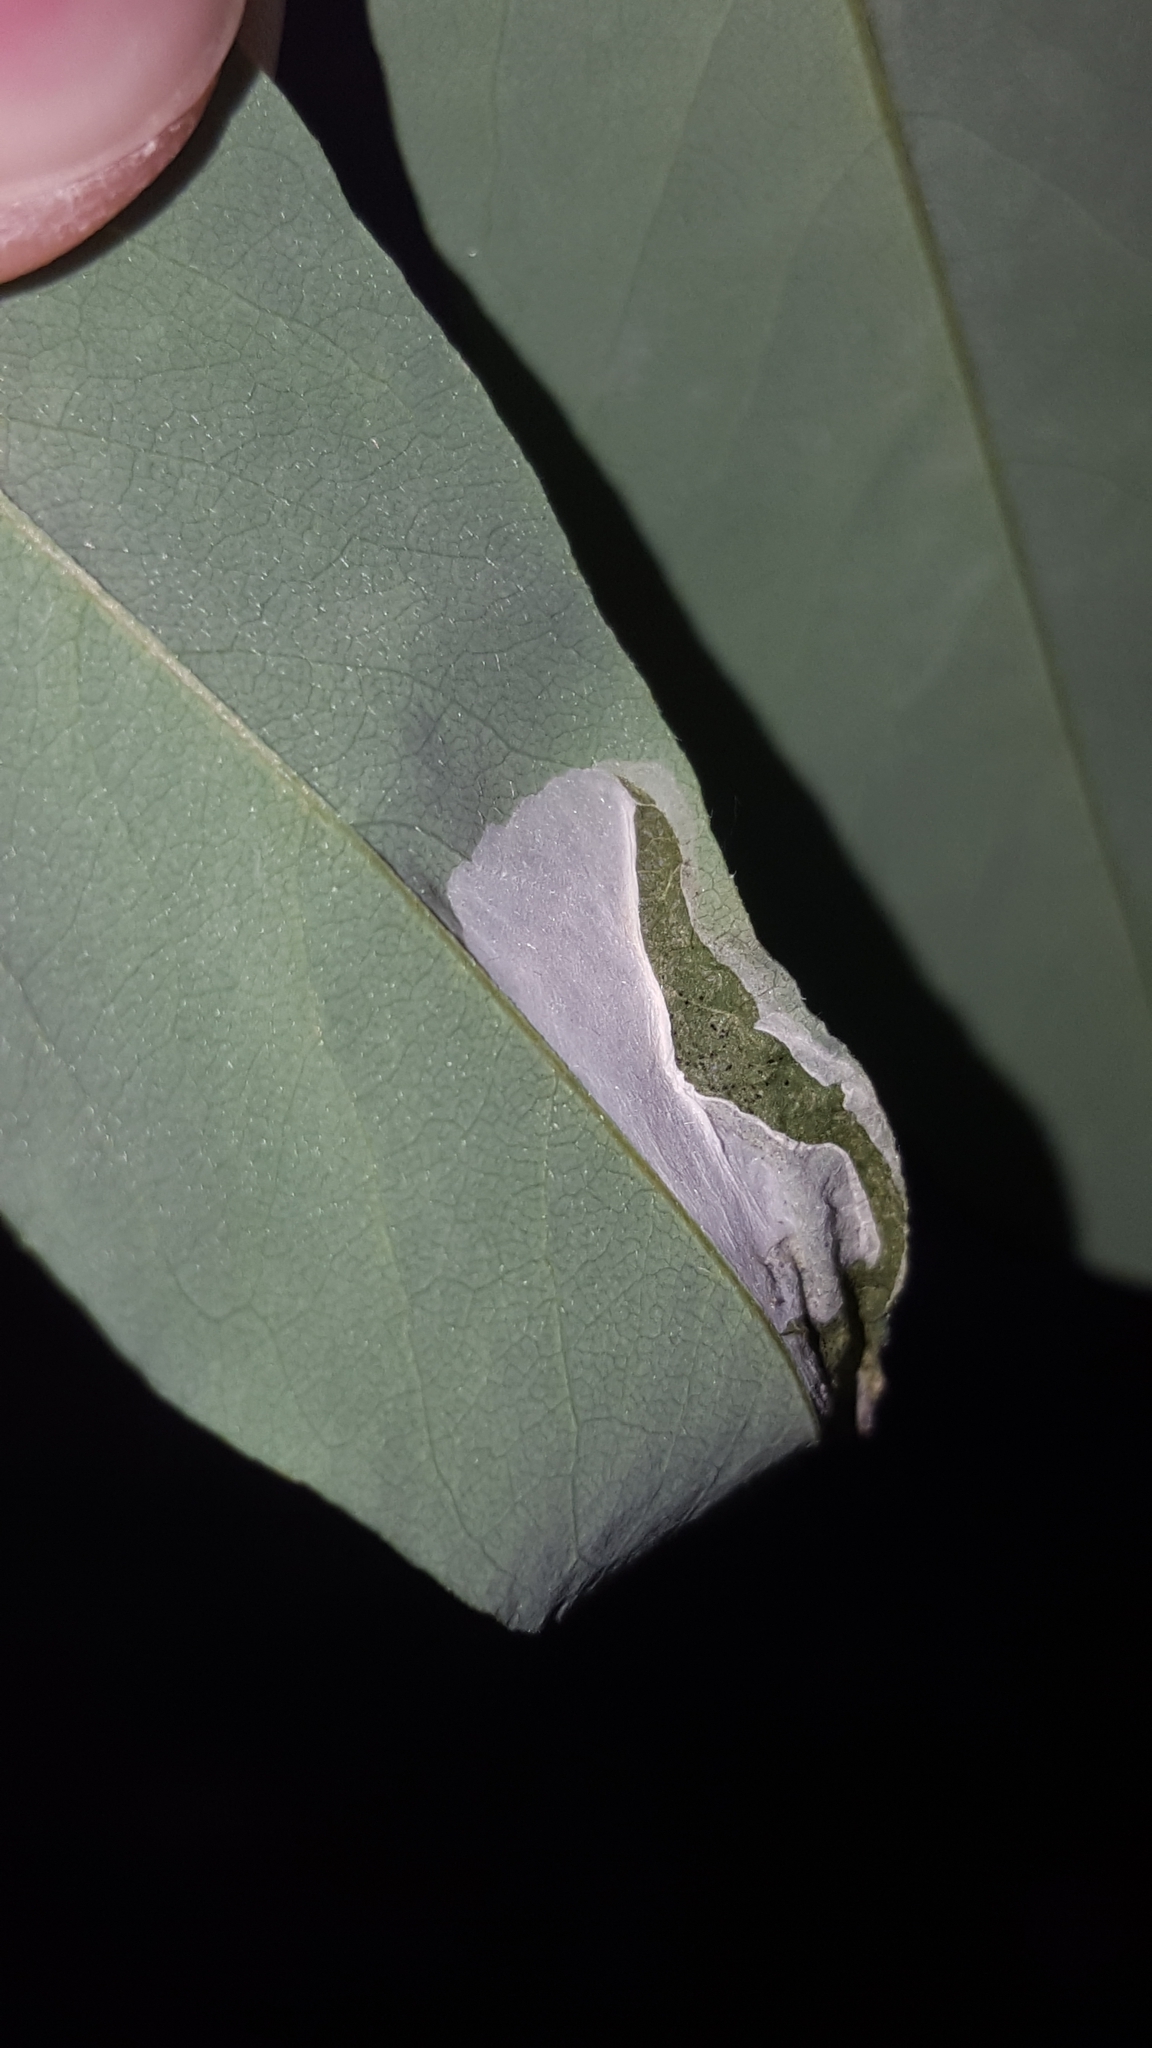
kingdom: Animalia
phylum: Arthropoda
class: Insecta
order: Lepidoptera
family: Gracillariidae
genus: Macrosaccus
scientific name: Macrosaccus robiniella
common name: Leaf blotch miner moth
